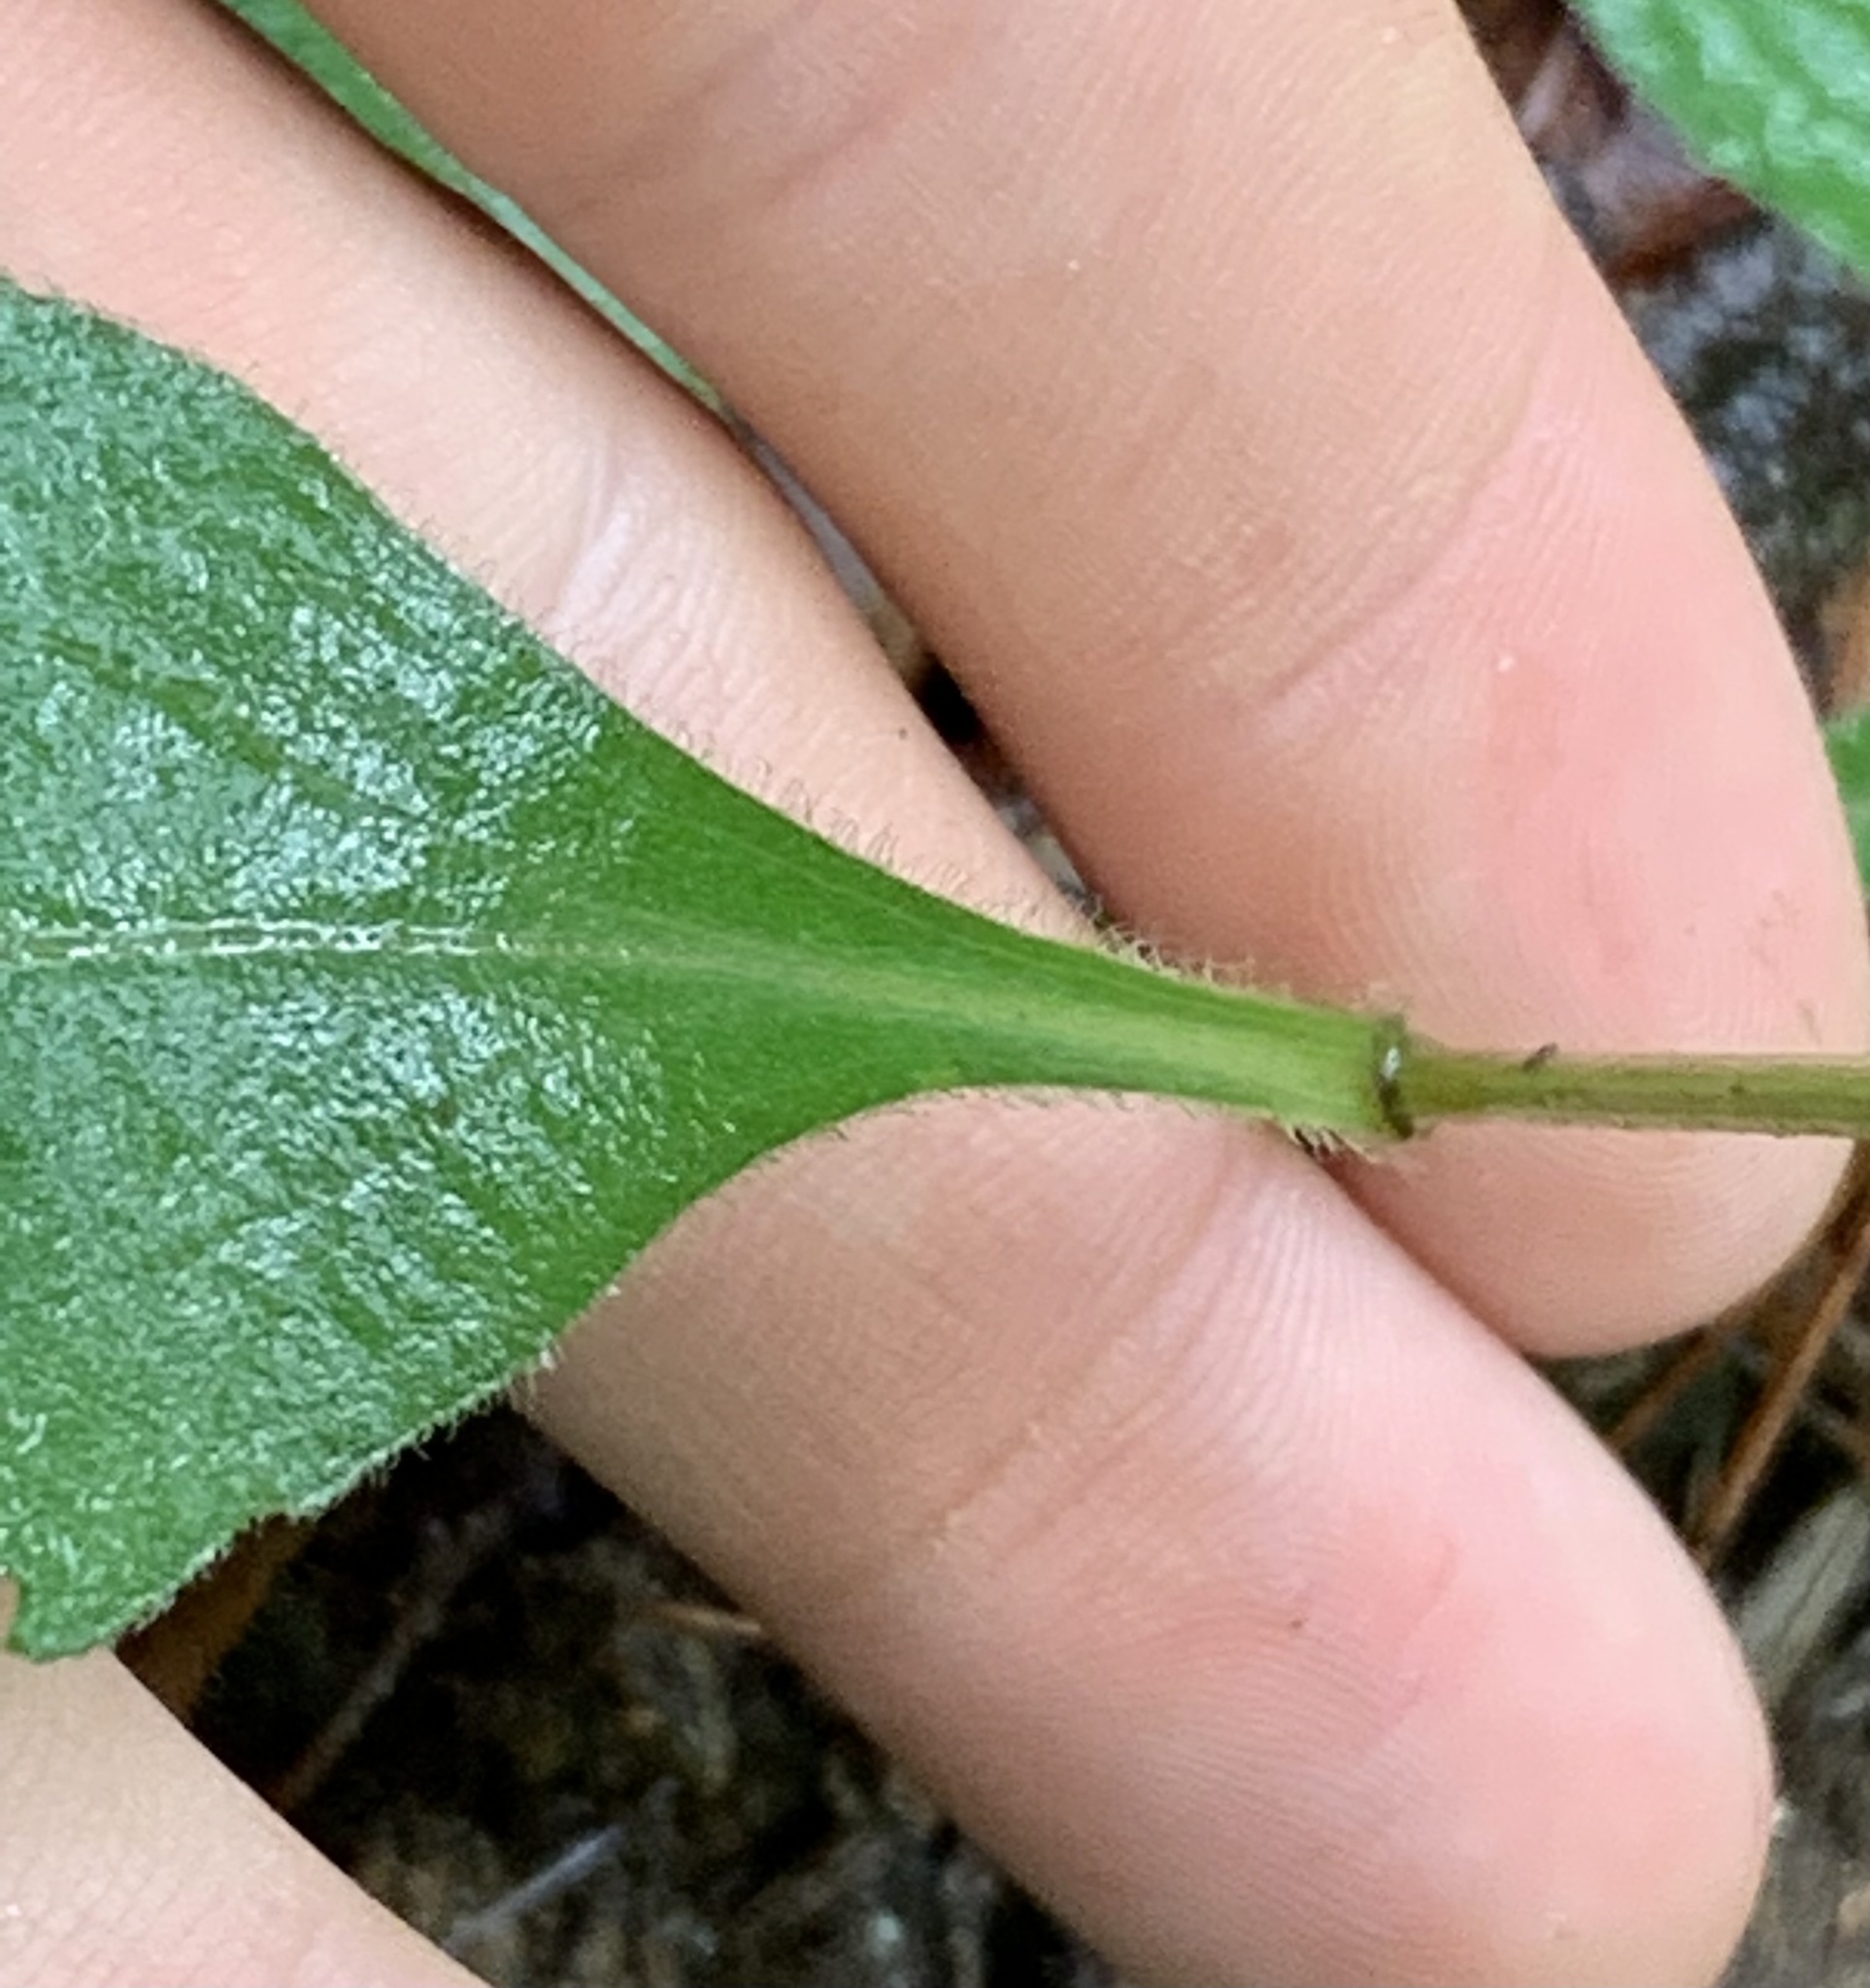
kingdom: Plantae
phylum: Tracheophyta
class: Magnoliopsida
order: Asterales
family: Asteraceae
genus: Sericocarpus
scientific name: Sericocarpus asteroides
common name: Toothed white-top aster
